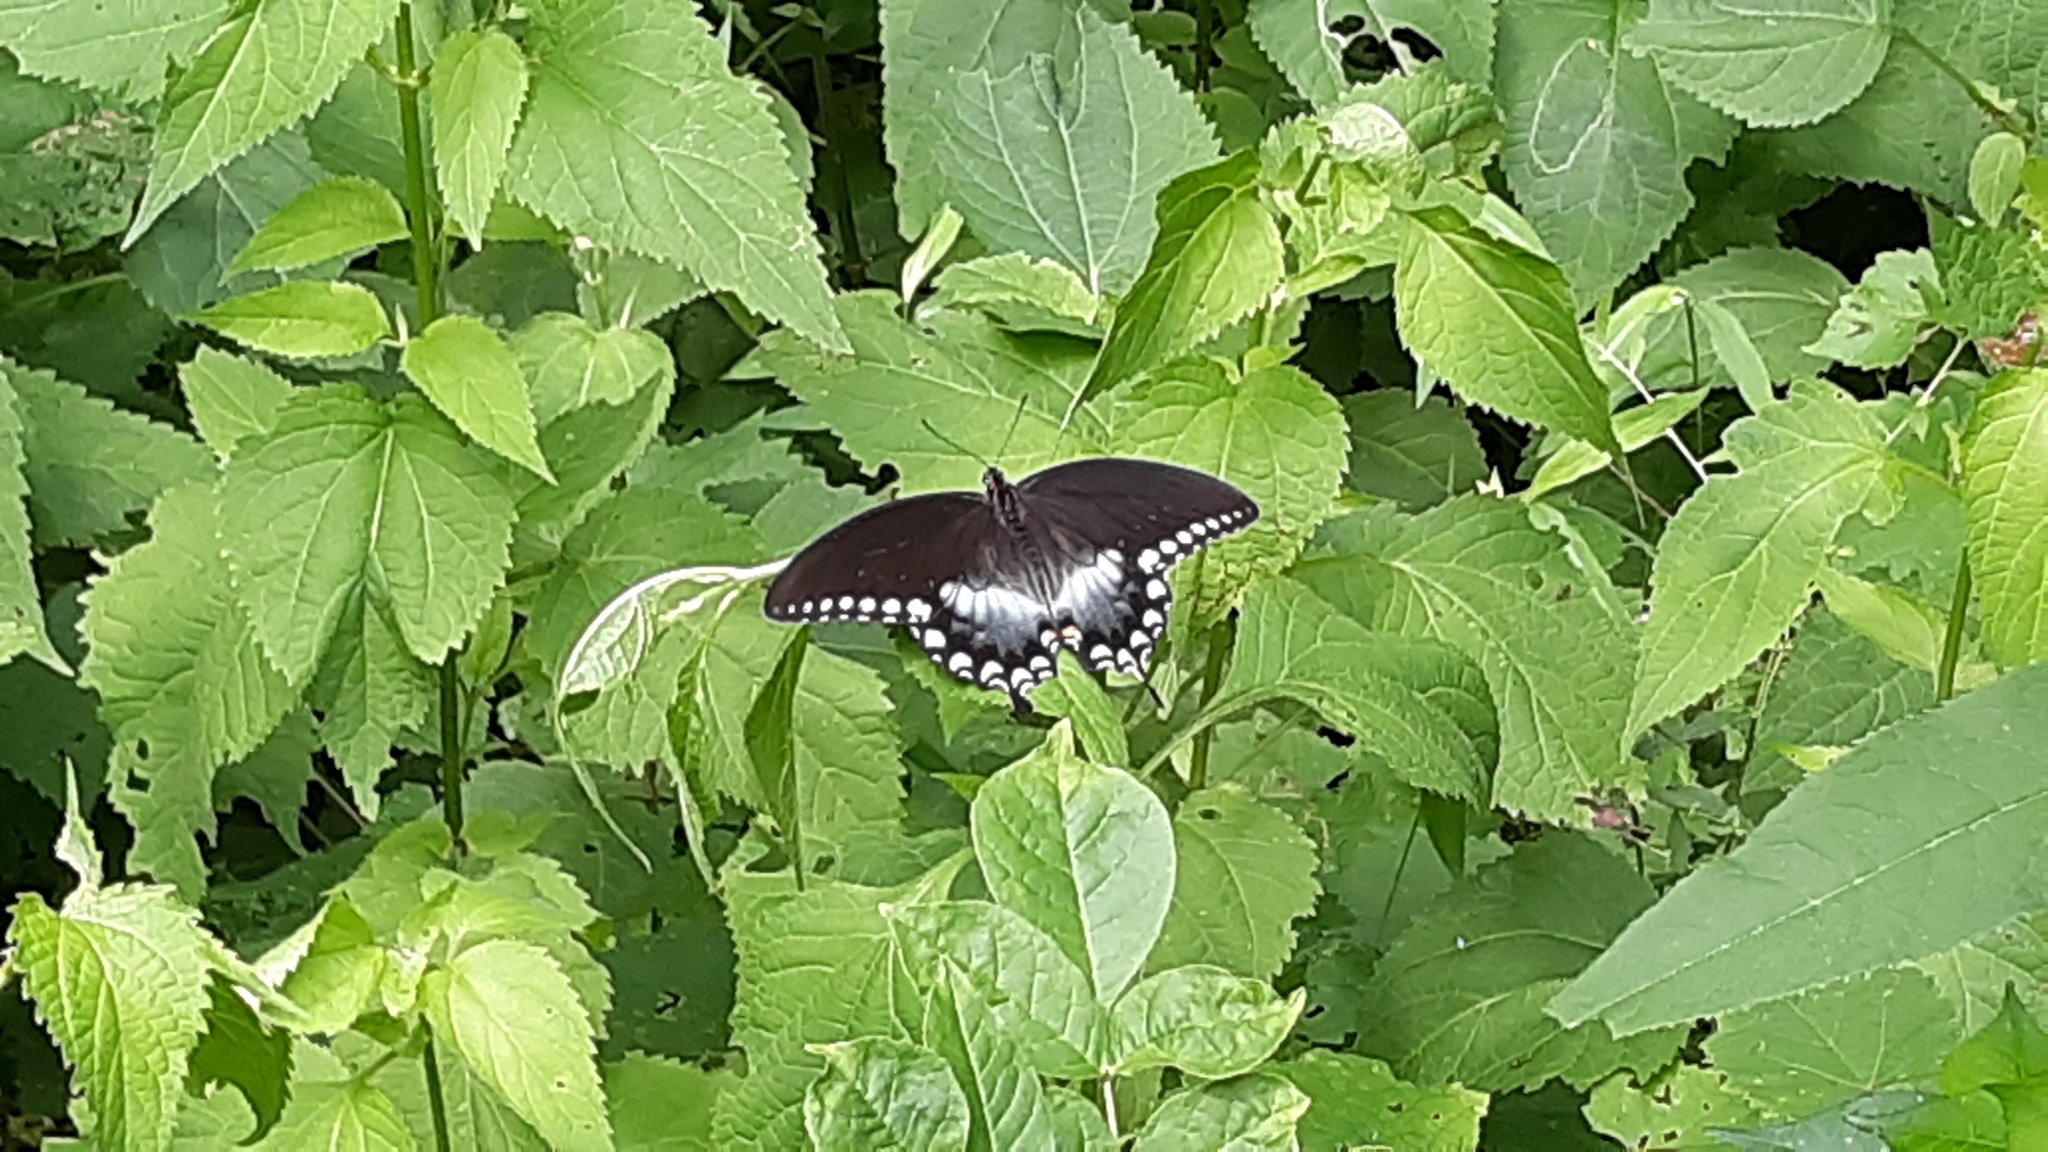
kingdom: Animalia
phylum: Arthropoda
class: Insecta
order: Lepidoptera
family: Papilionidae
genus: Papilio
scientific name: Papilio troilus
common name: Spicebush swallowtail
